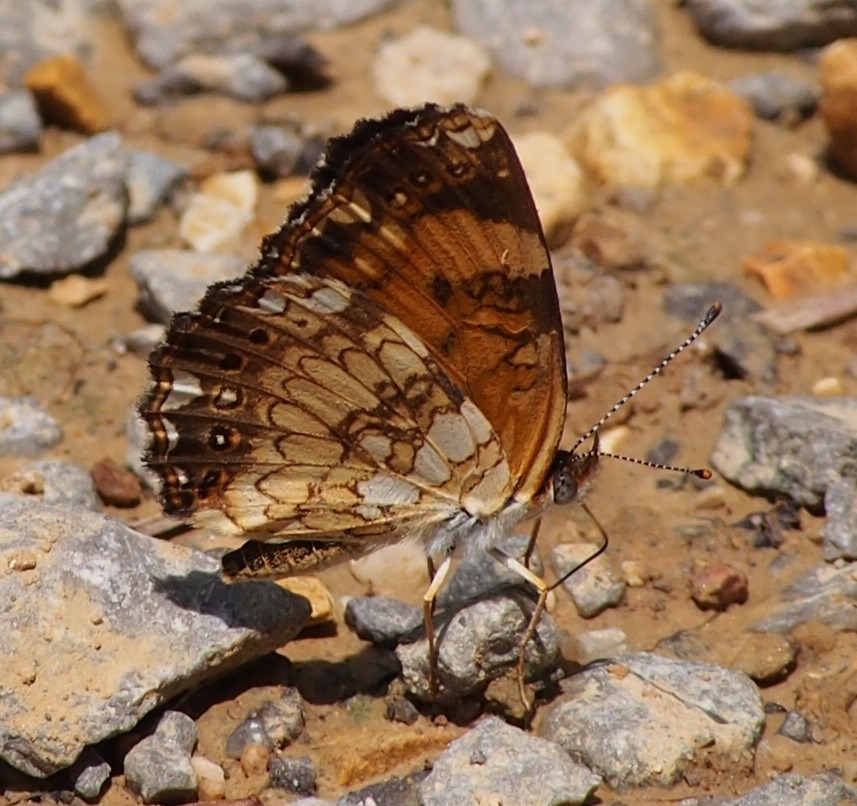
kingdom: Animalia
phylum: Arthropoda
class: Insecta
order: Lepidoptera
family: Nymphalidae
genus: Chlosyne
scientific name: Chlosyne nycteis
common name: Silvery checkerspot
